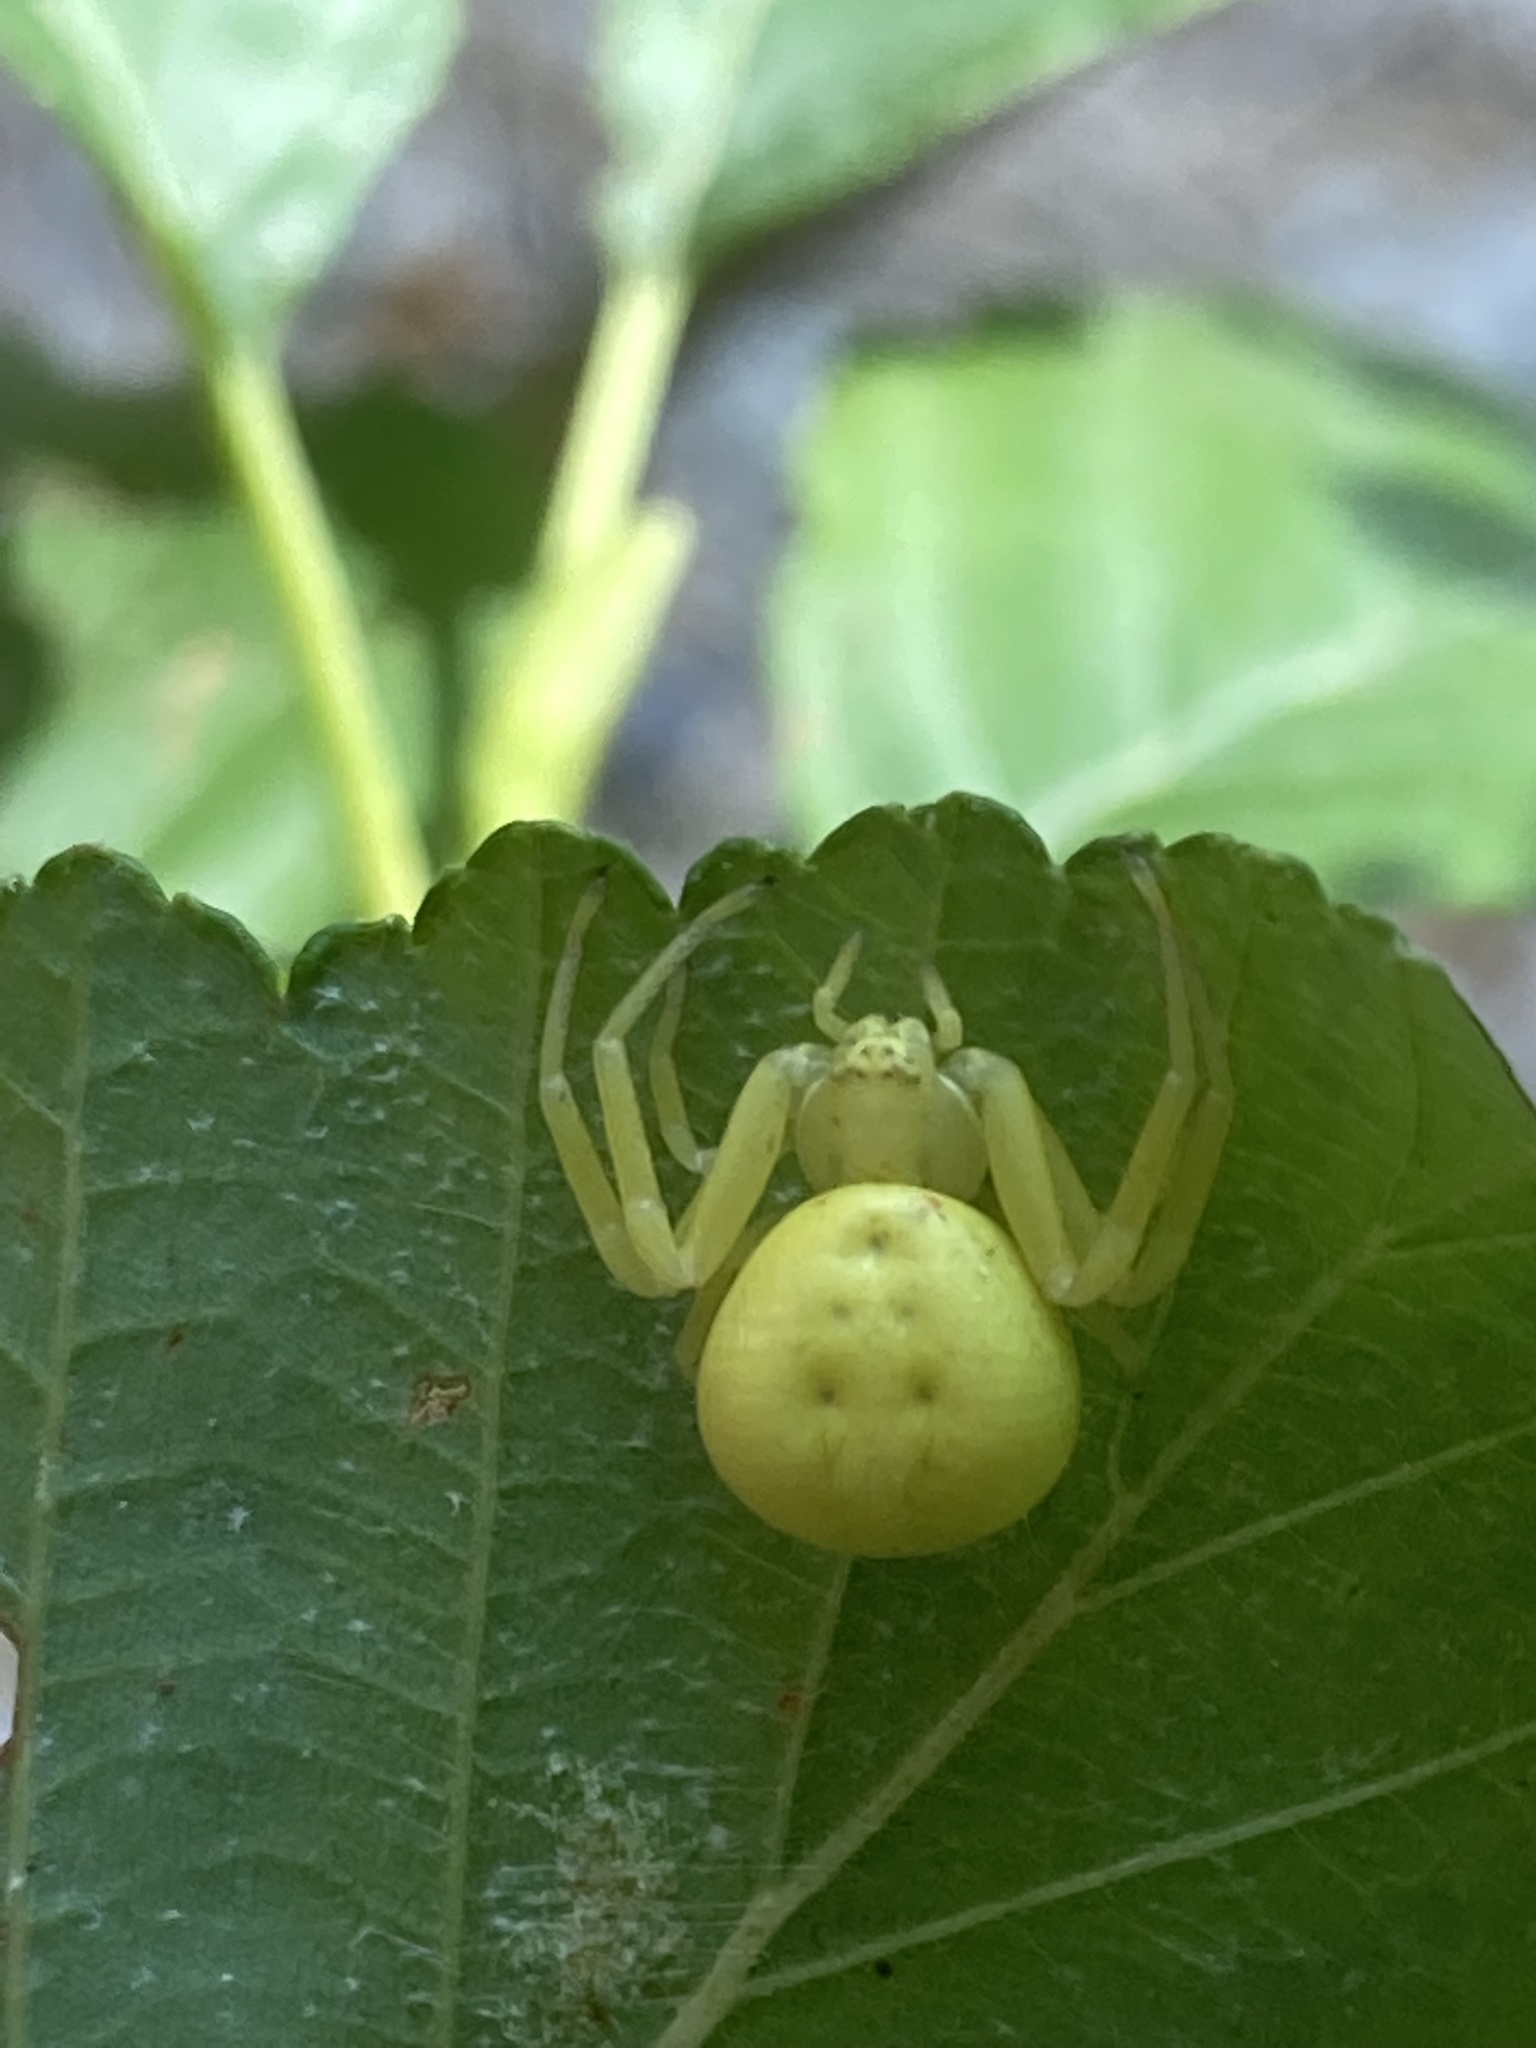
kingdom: Animalia
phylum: Arthropoda
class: Arachnida
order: Araneae
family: Thomisidae
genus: Misumena
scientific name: Misumena vatia
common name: Goldenrod crab spider
